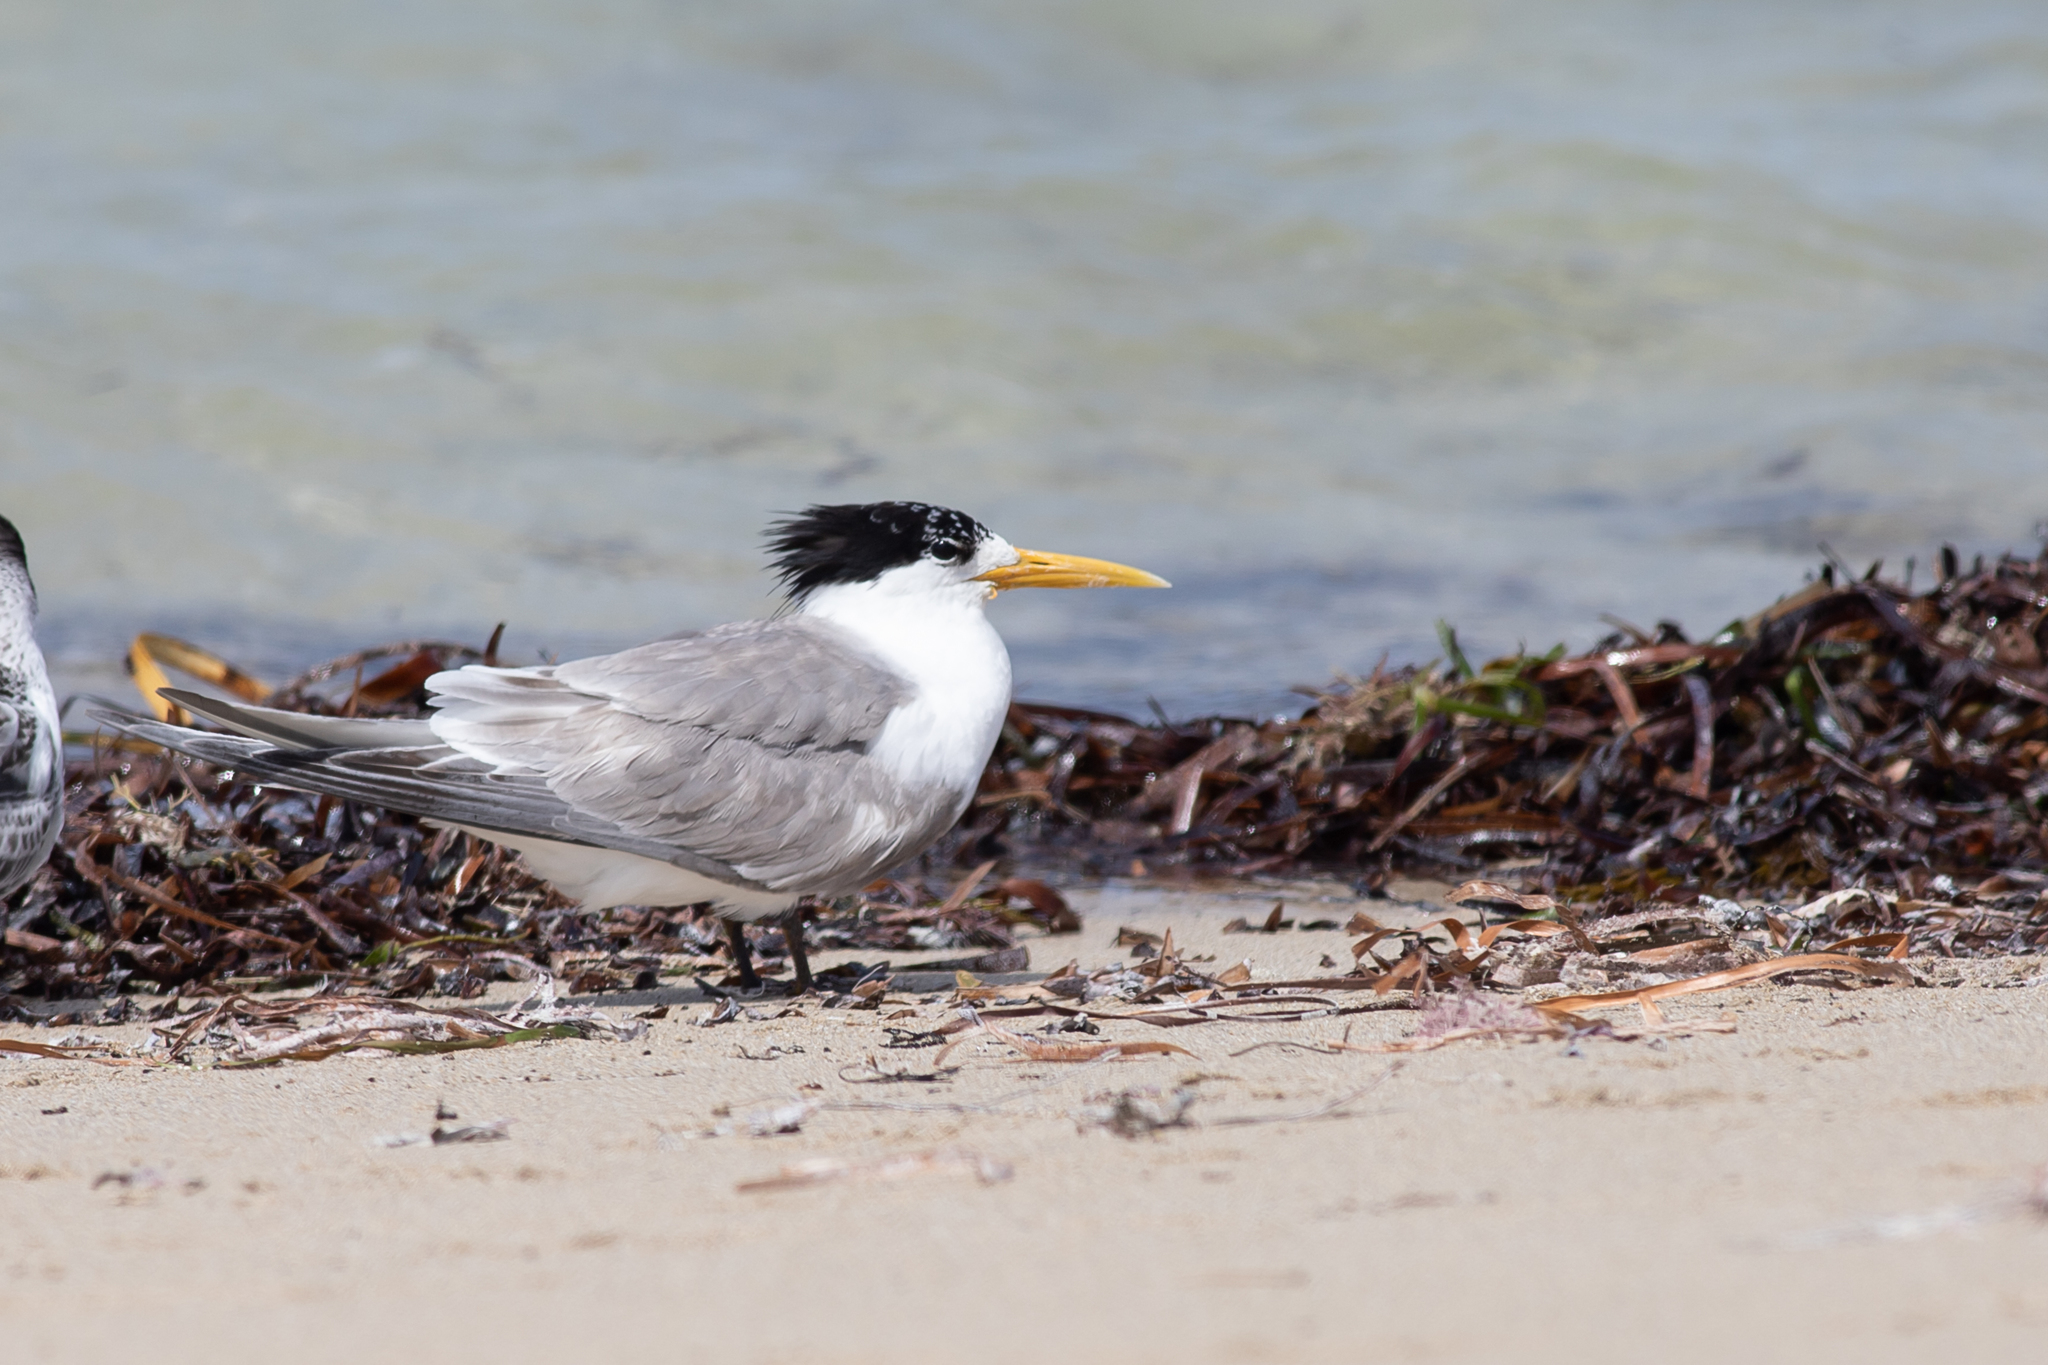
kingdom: Animalia
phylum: Chordata
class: Aves
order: Charadriiformes
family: Laridae
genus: Thalasseus
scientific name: Thalasseus bergii
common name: Greater crested tern
